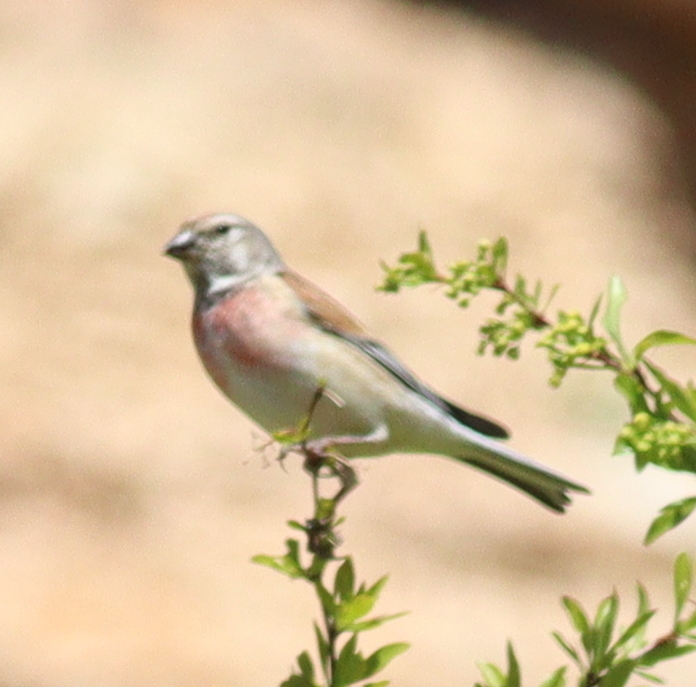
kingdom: Animalia
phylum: Chordata
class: Aves
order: Passeriformes
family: Fringillidae
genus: Linaria
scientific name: Linaria cannabina
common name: Common linnet
